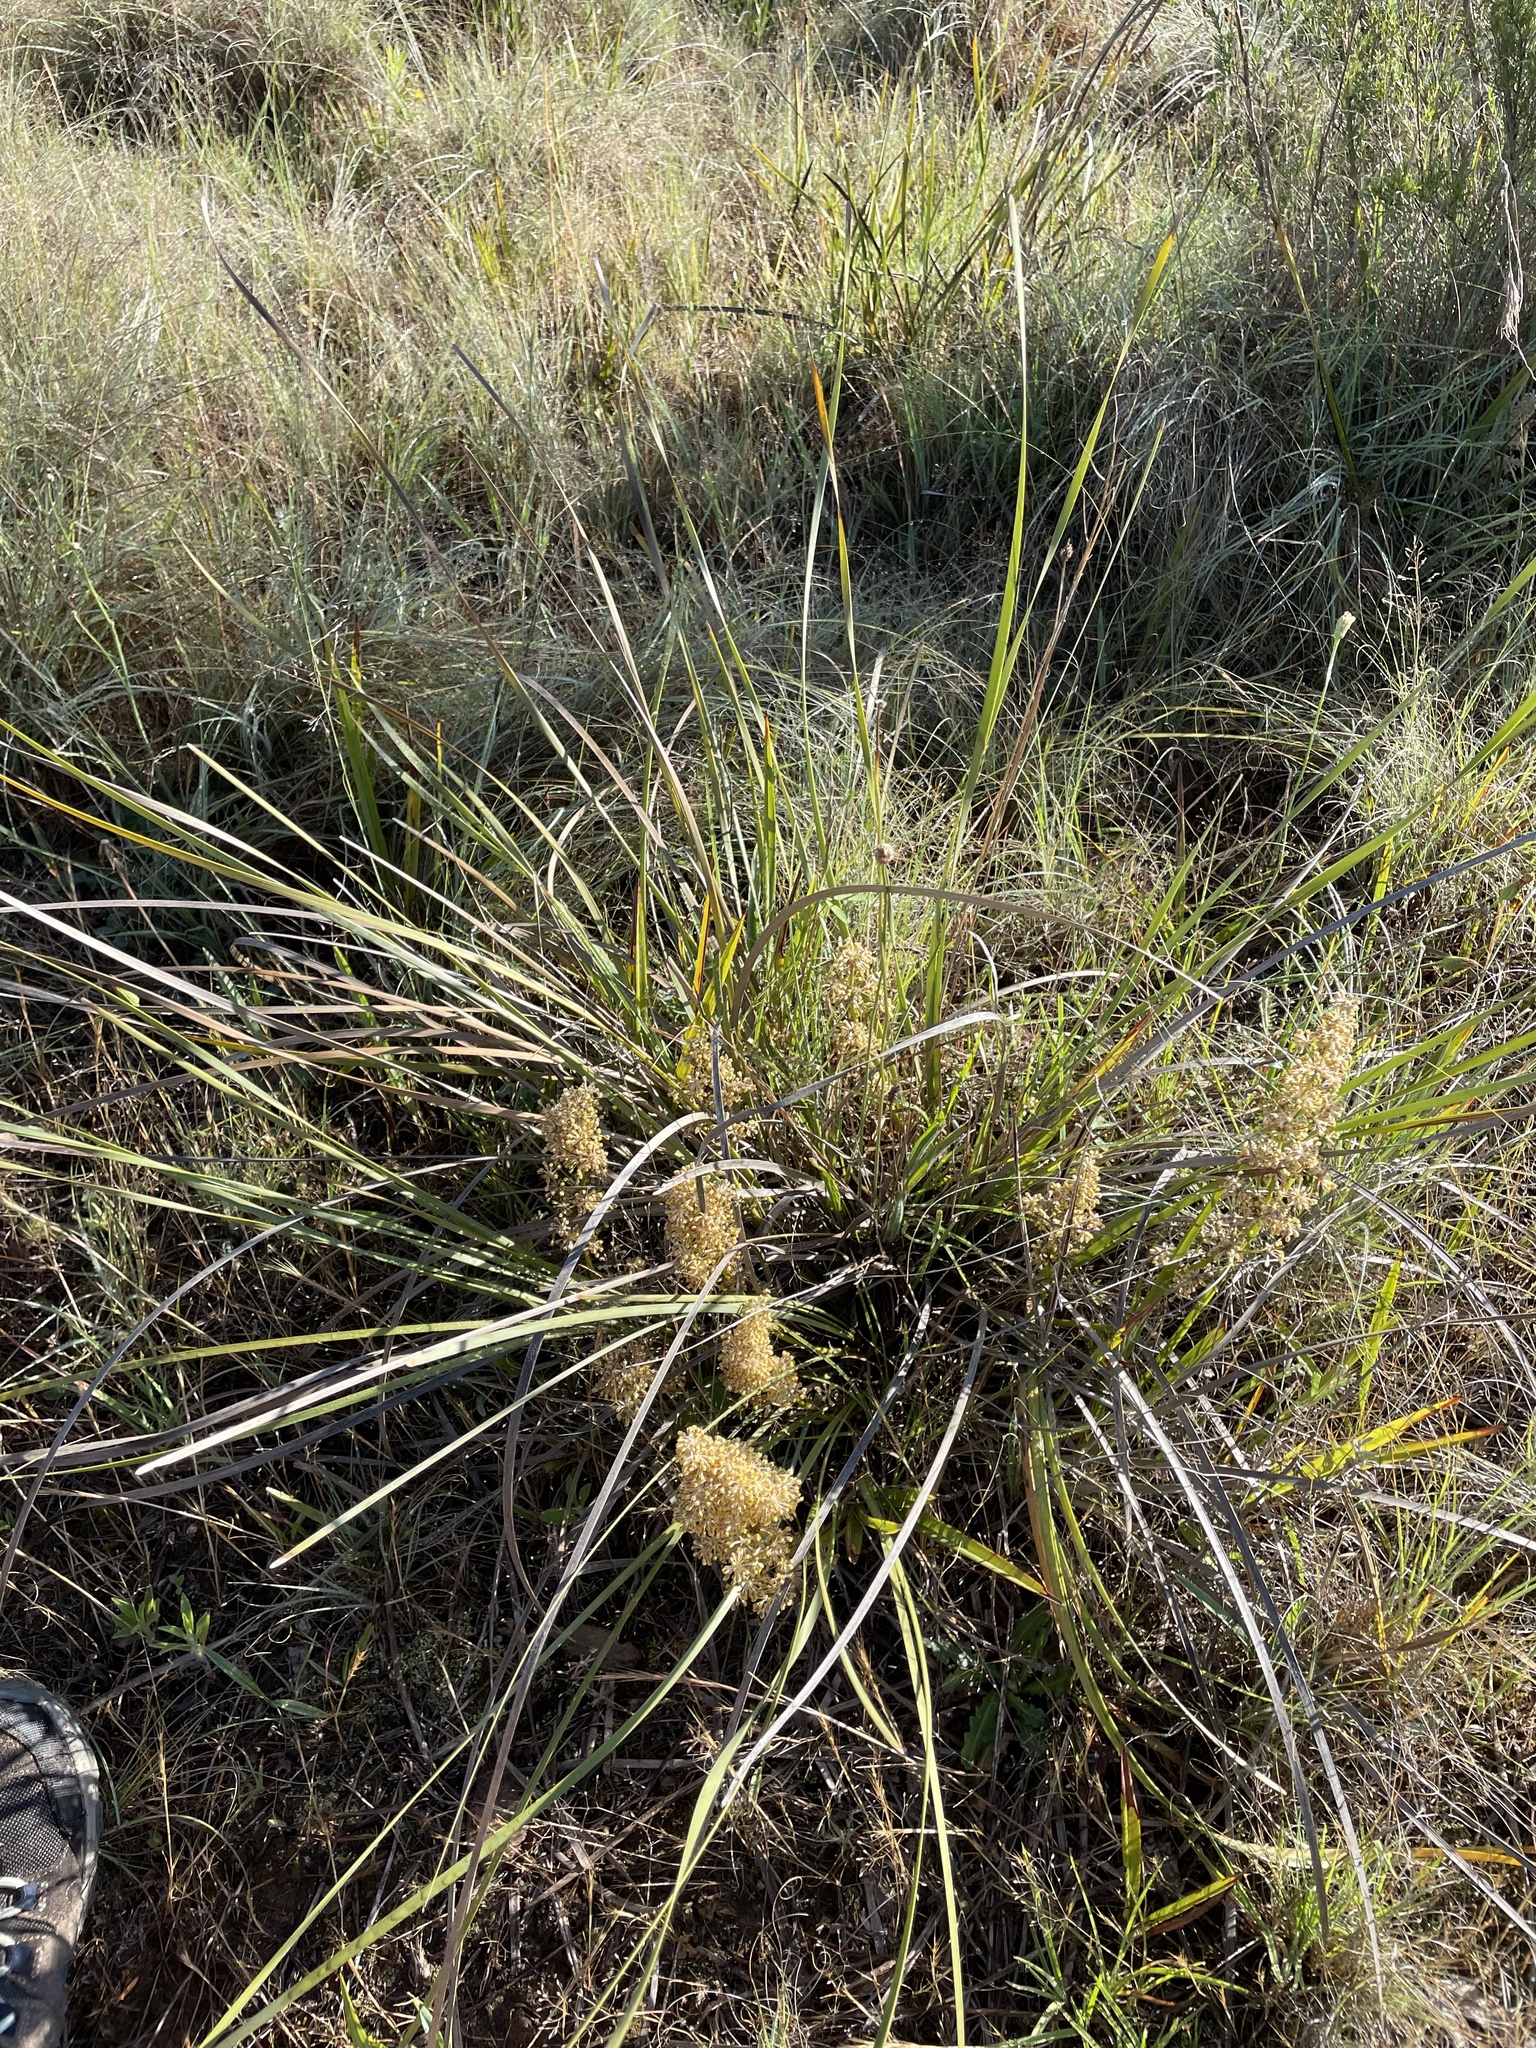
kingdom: Plantae
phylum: Tracheophyta
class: Liliopsida
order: Asparagales
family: Asparagaceae
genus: Lomandra
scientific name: Lomandra multiflora
